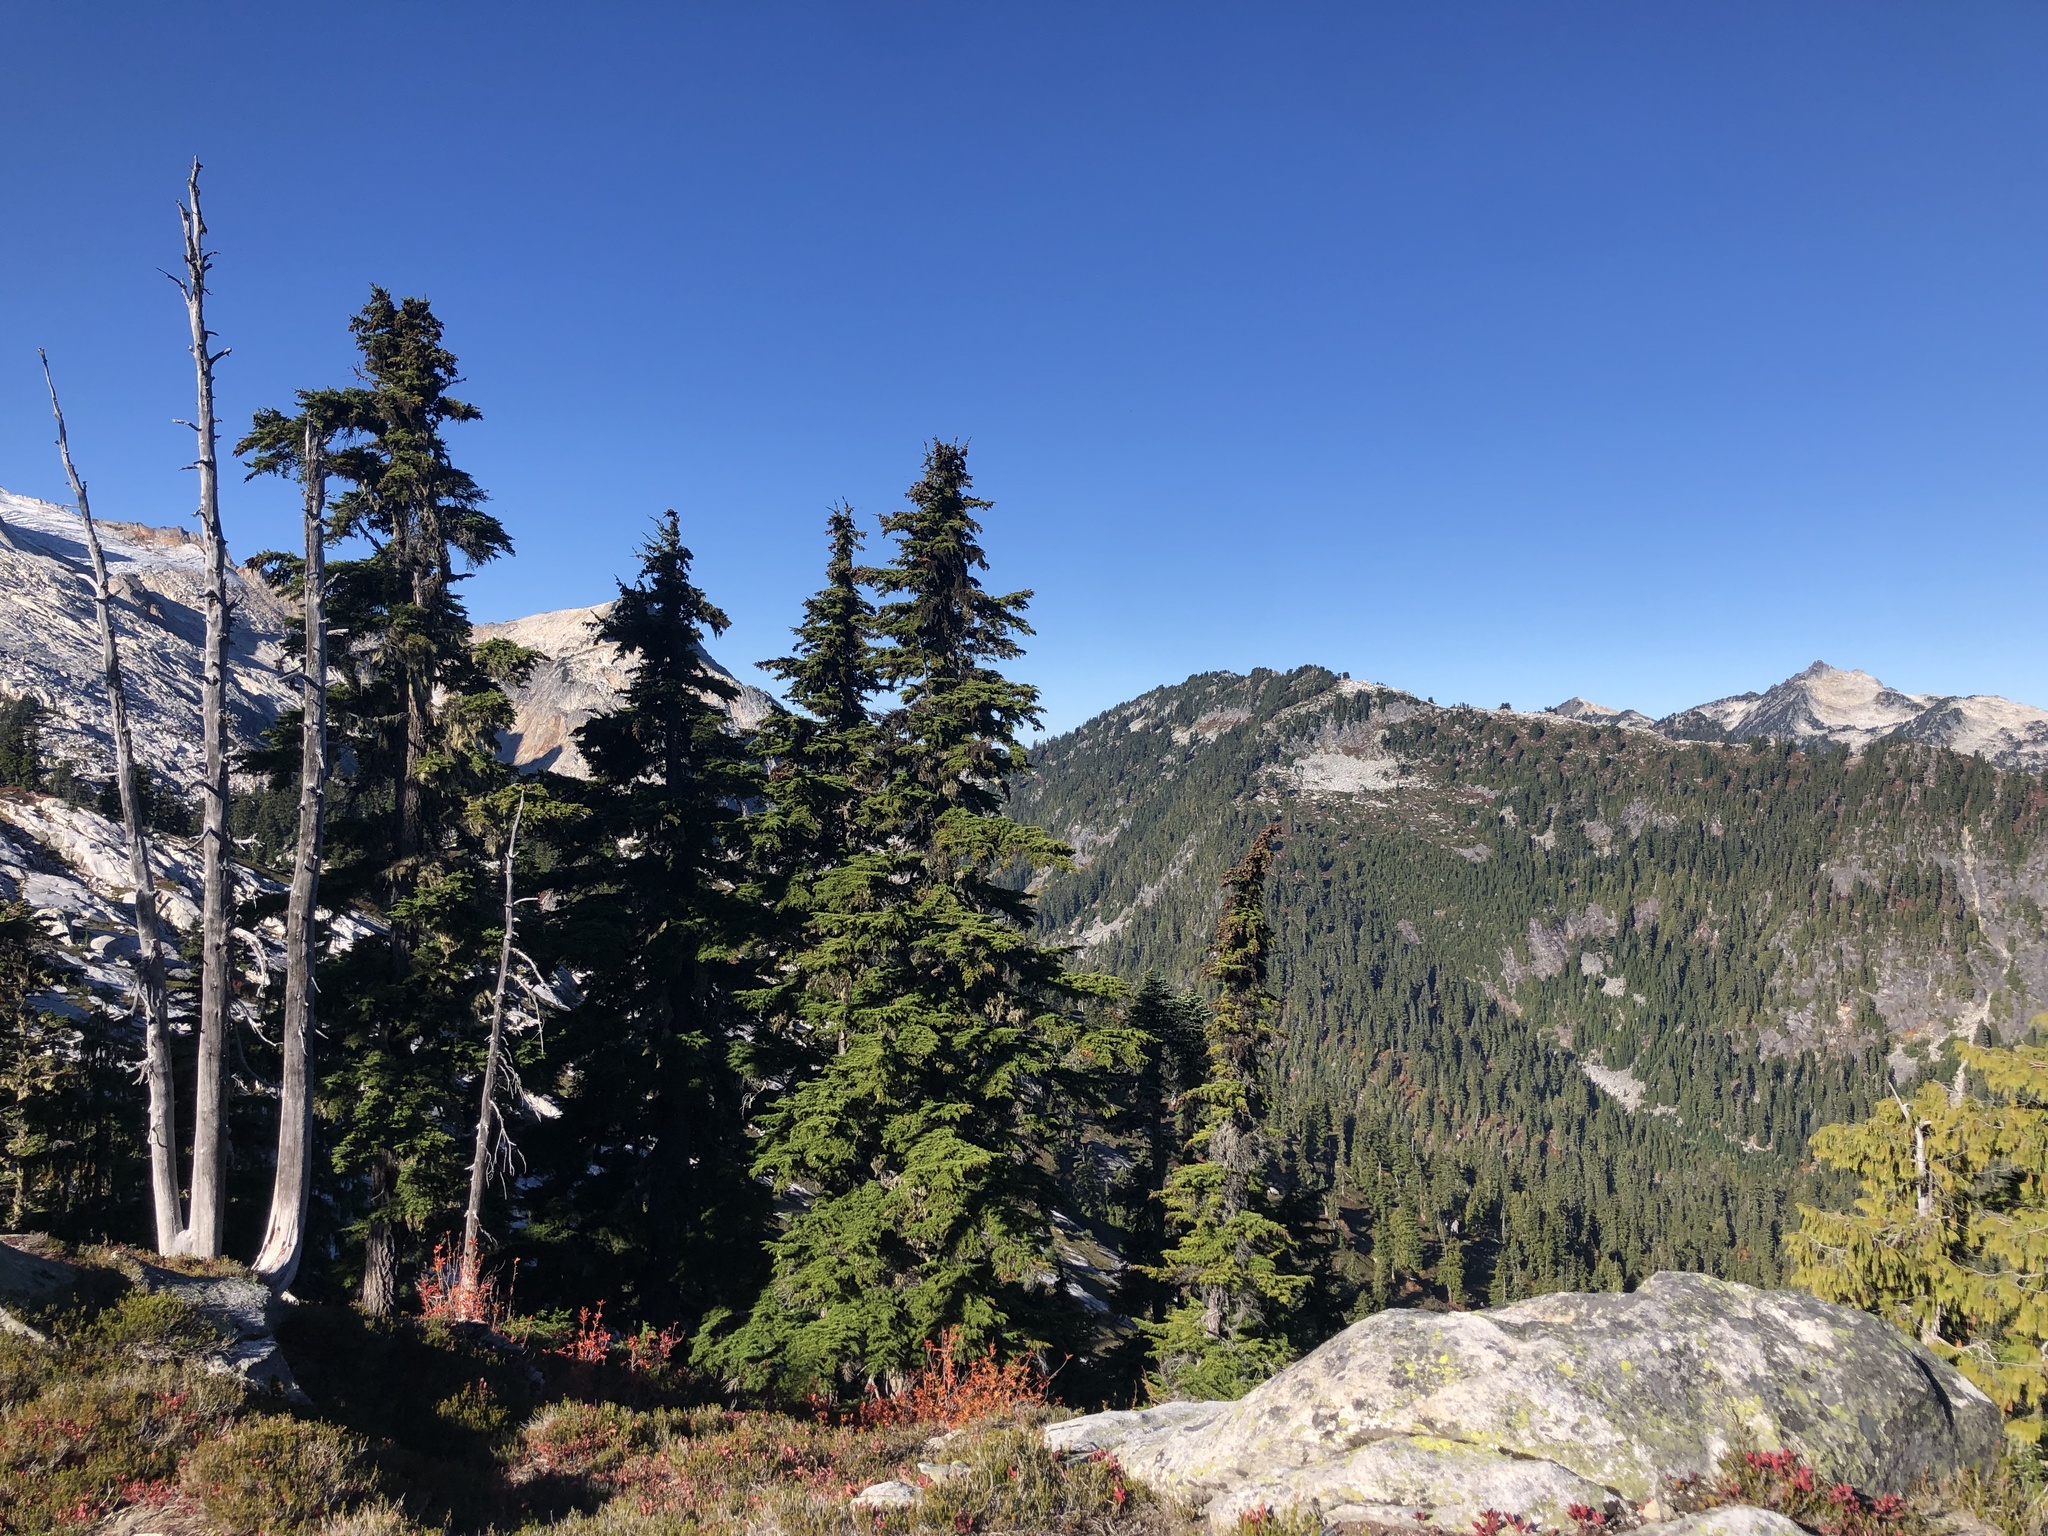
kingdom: Plantae
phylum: Tracheophyta
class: Pinopsida
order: Pinales
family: Pinaceae
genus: Tsuga
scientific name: Tsuga mertensiana
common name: Mountain hemlock
